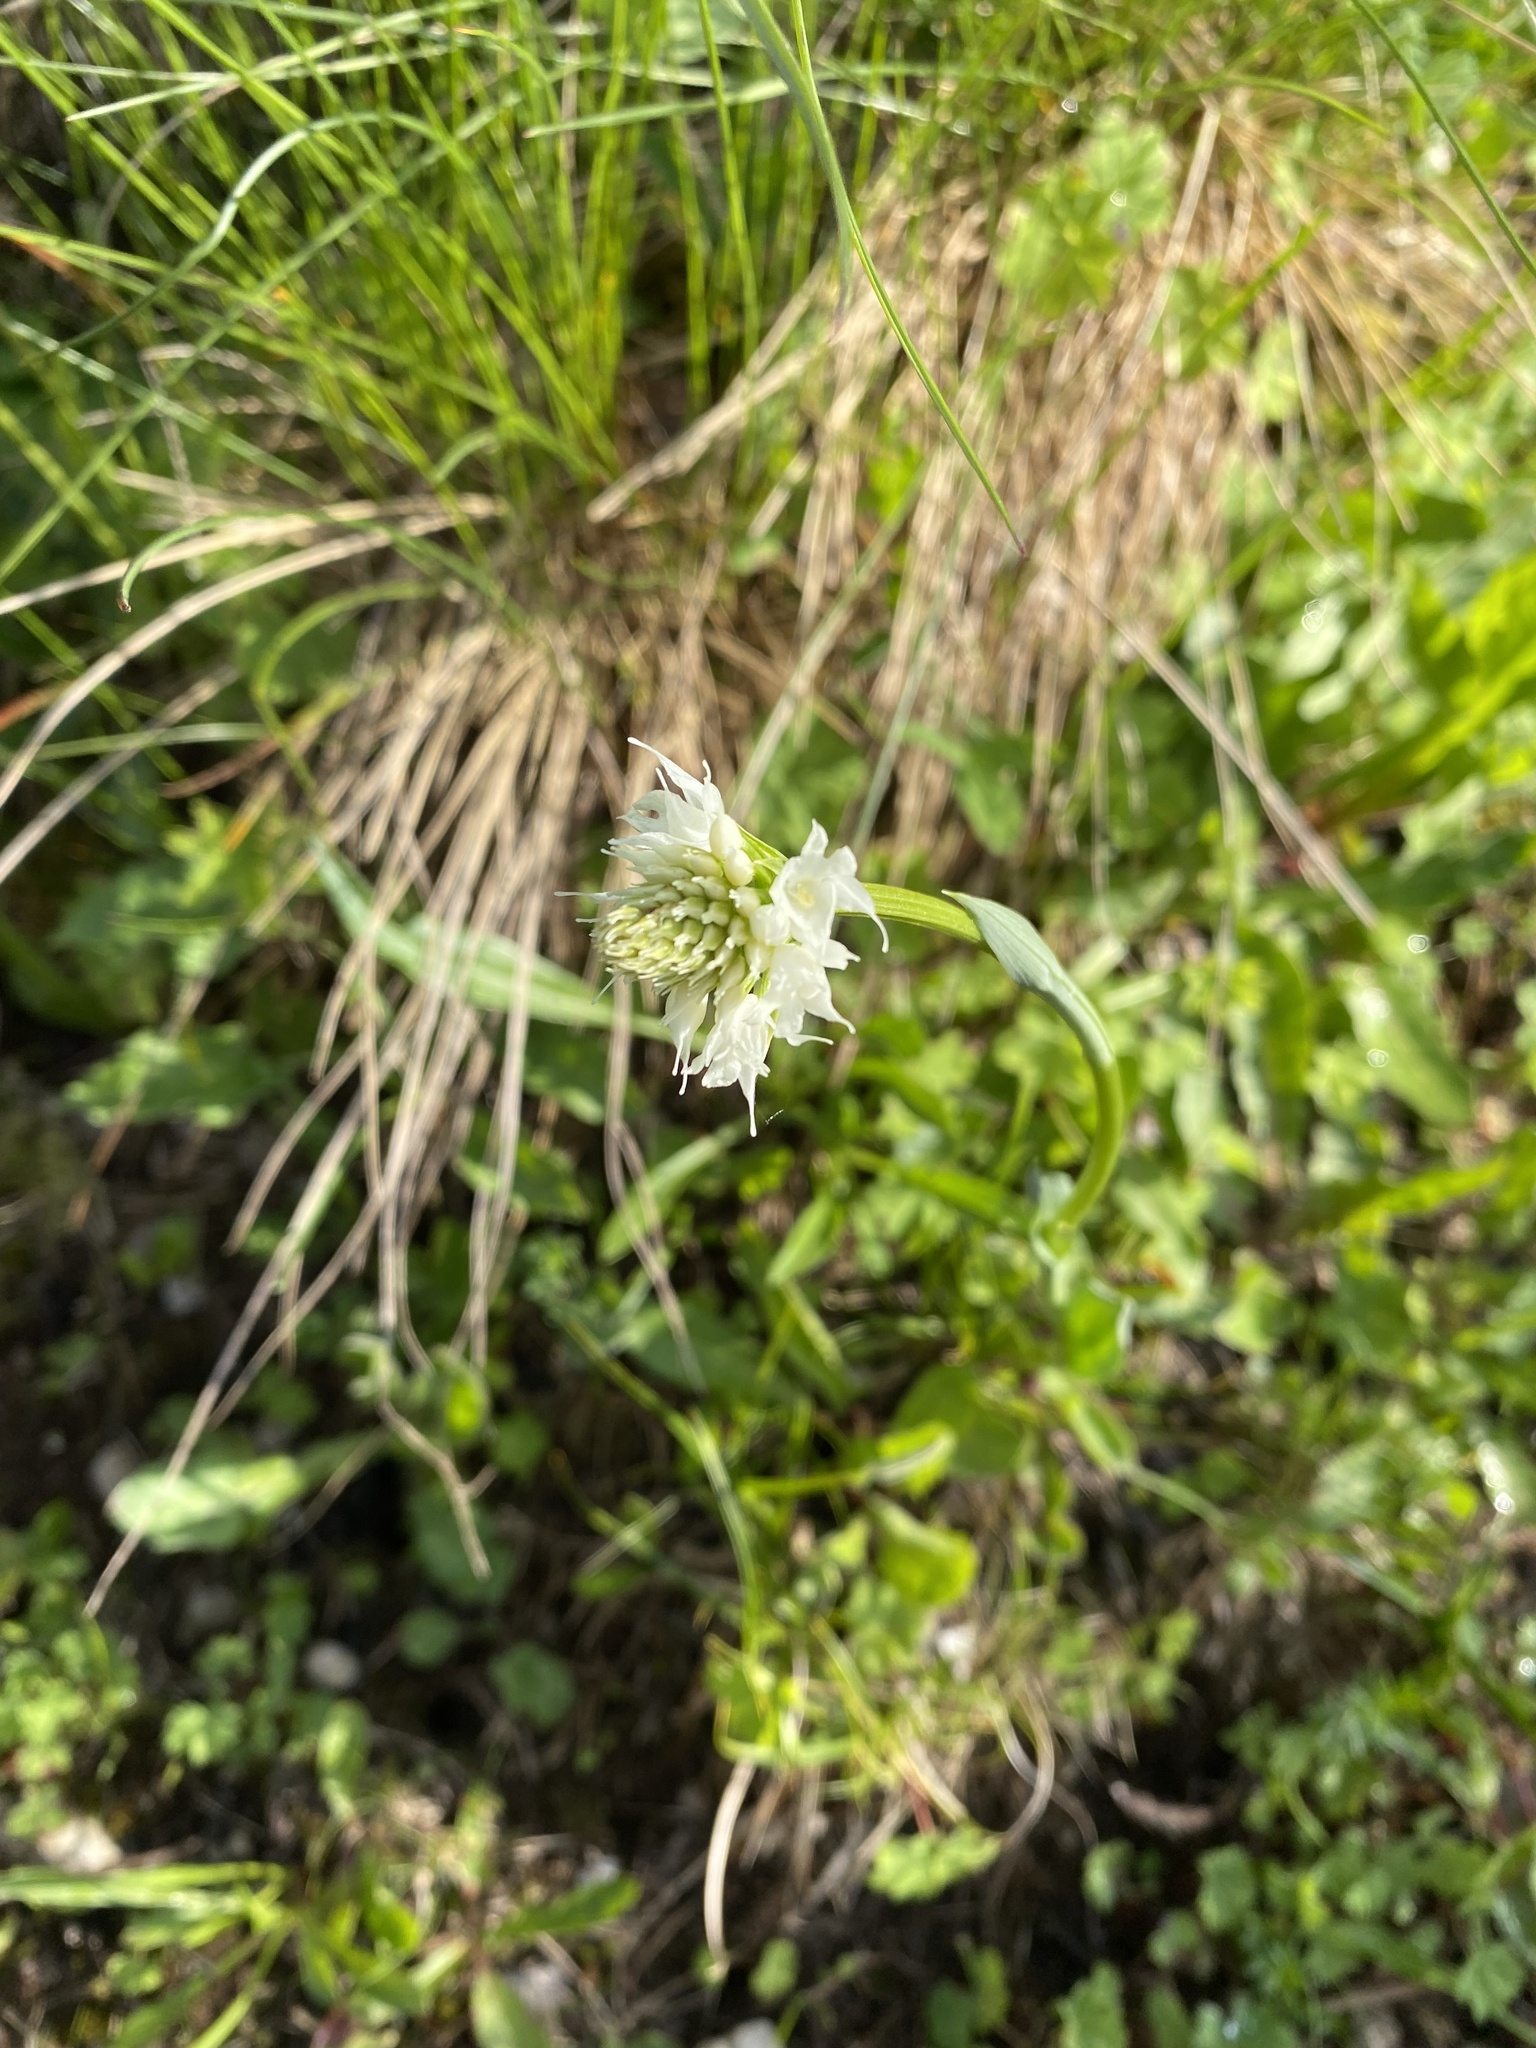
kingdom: Plantae
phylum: Tracheophyta
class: Liliopsida
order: Asparagales
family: Orchidaceae
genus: Traunsteinera
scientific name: Traunsteinera sphaerica
